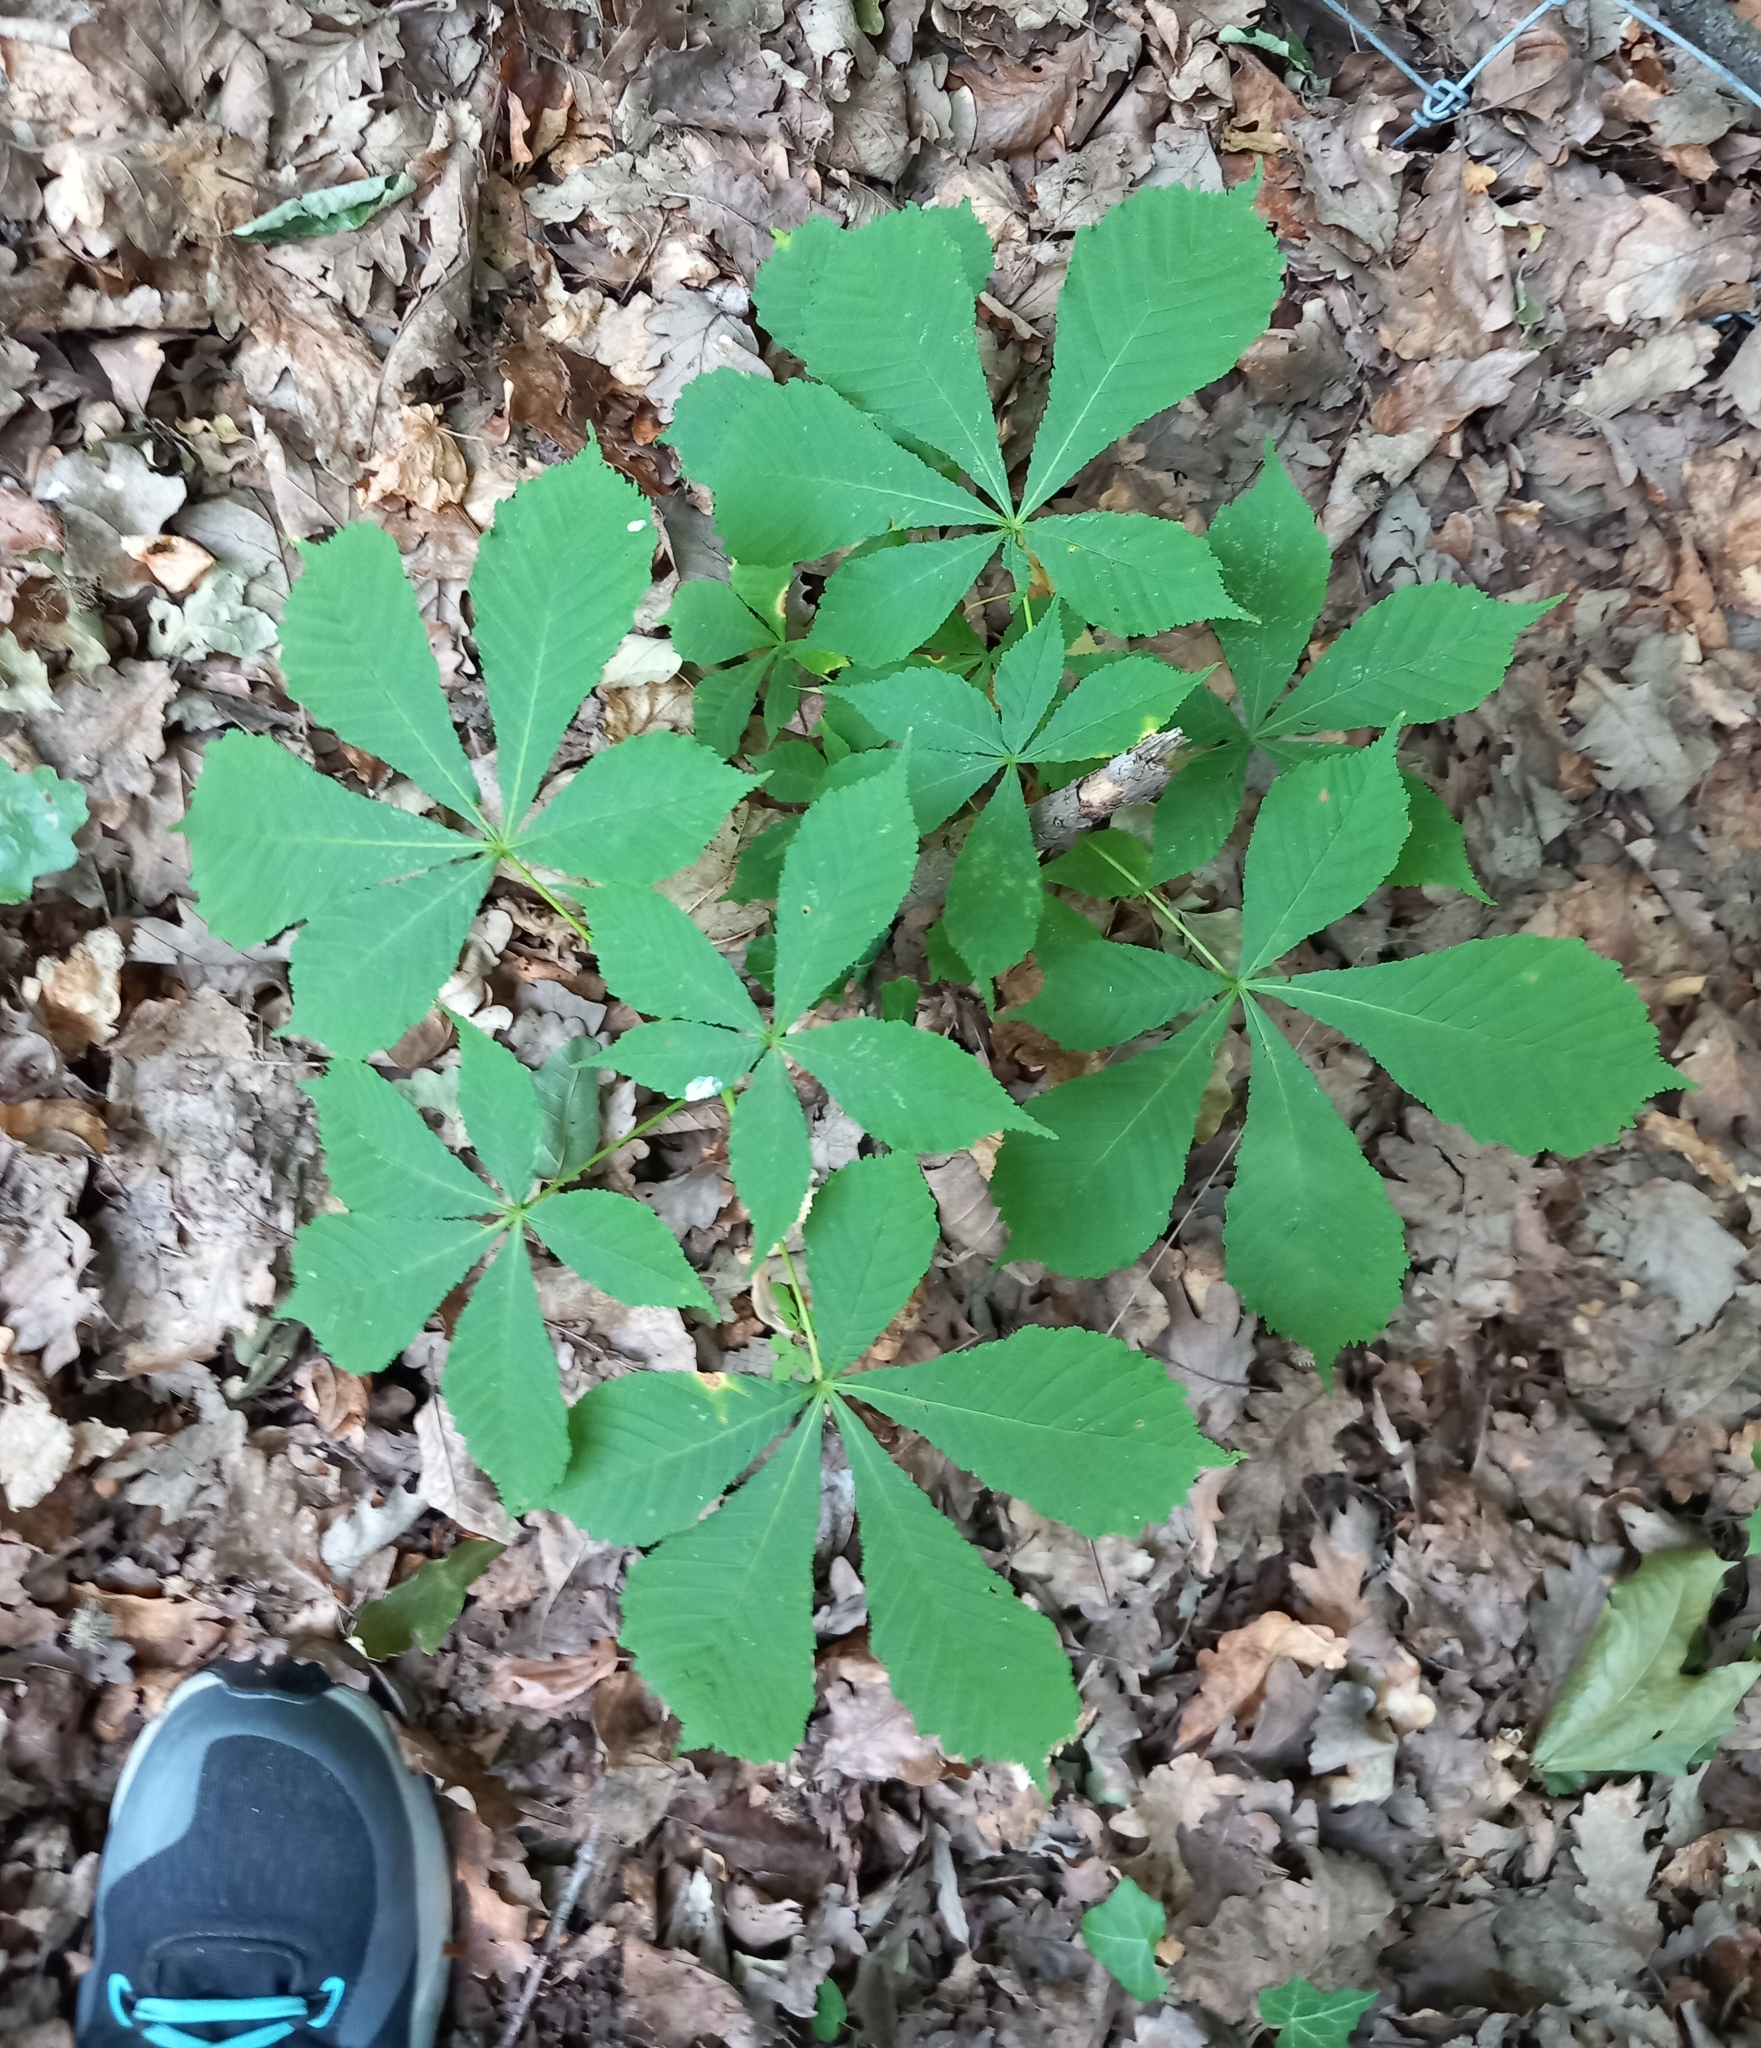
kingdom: Plantae
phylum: Tracheophyta
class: Magnoliopsida
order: Sapindales
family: Sapindaceae
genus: Aesculus
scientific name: Aesculus hippocastanum
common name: Horse-chestnut
